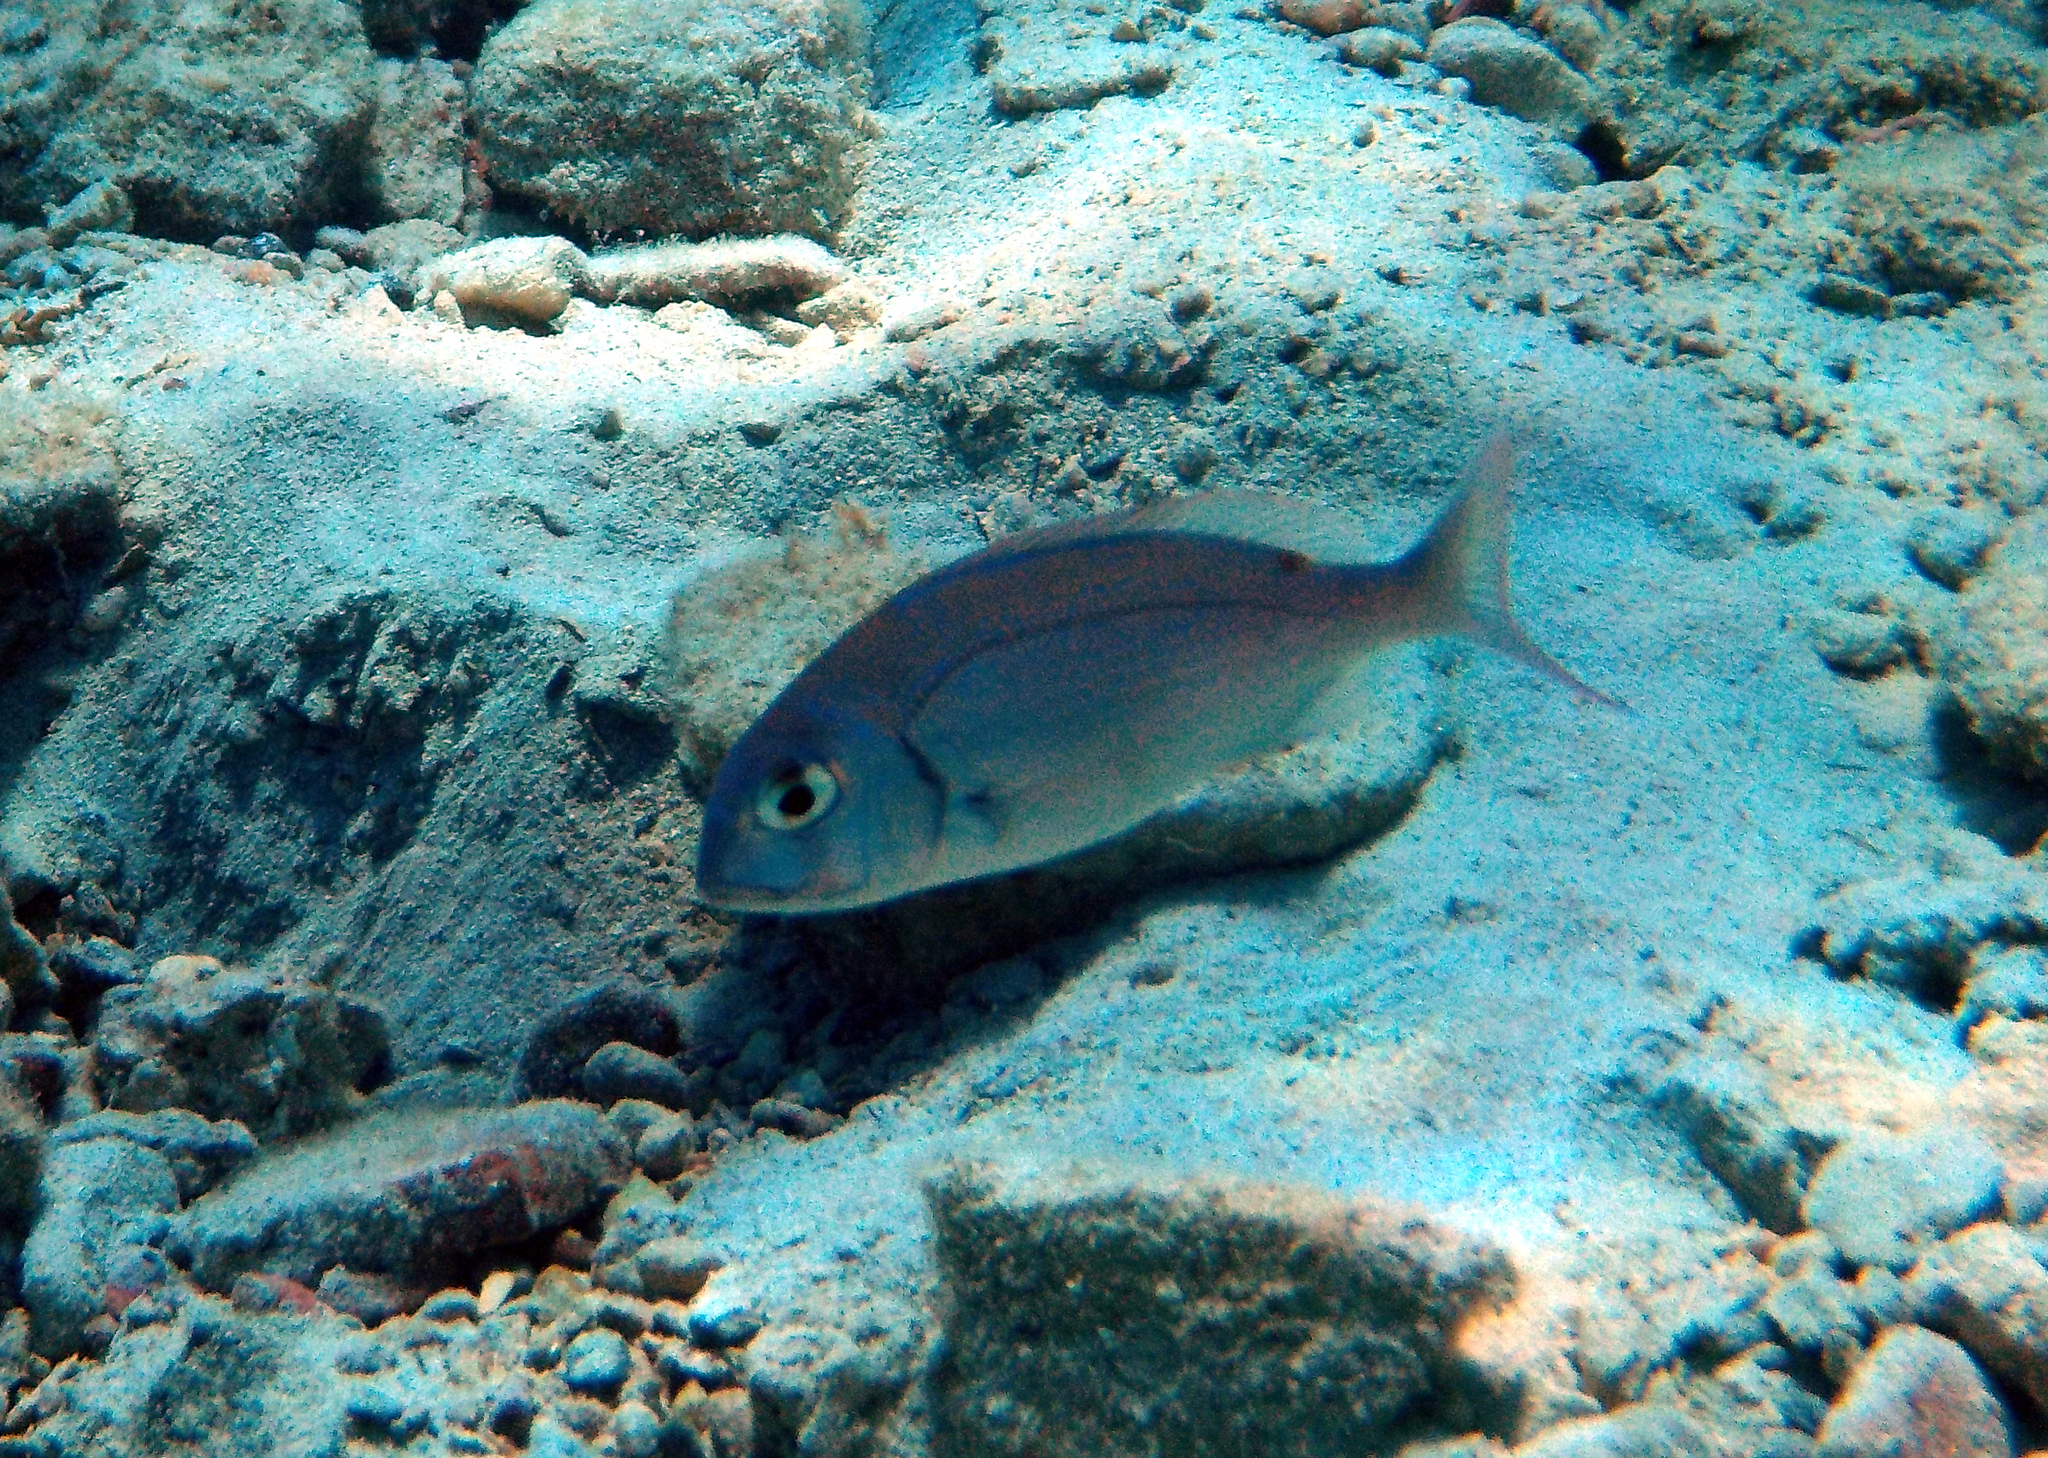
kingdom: Animalia
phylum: Chordata
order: Perciformes
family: Sparidae
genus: Pagrus
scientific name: Pagrus pagrus
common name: Red porgy
